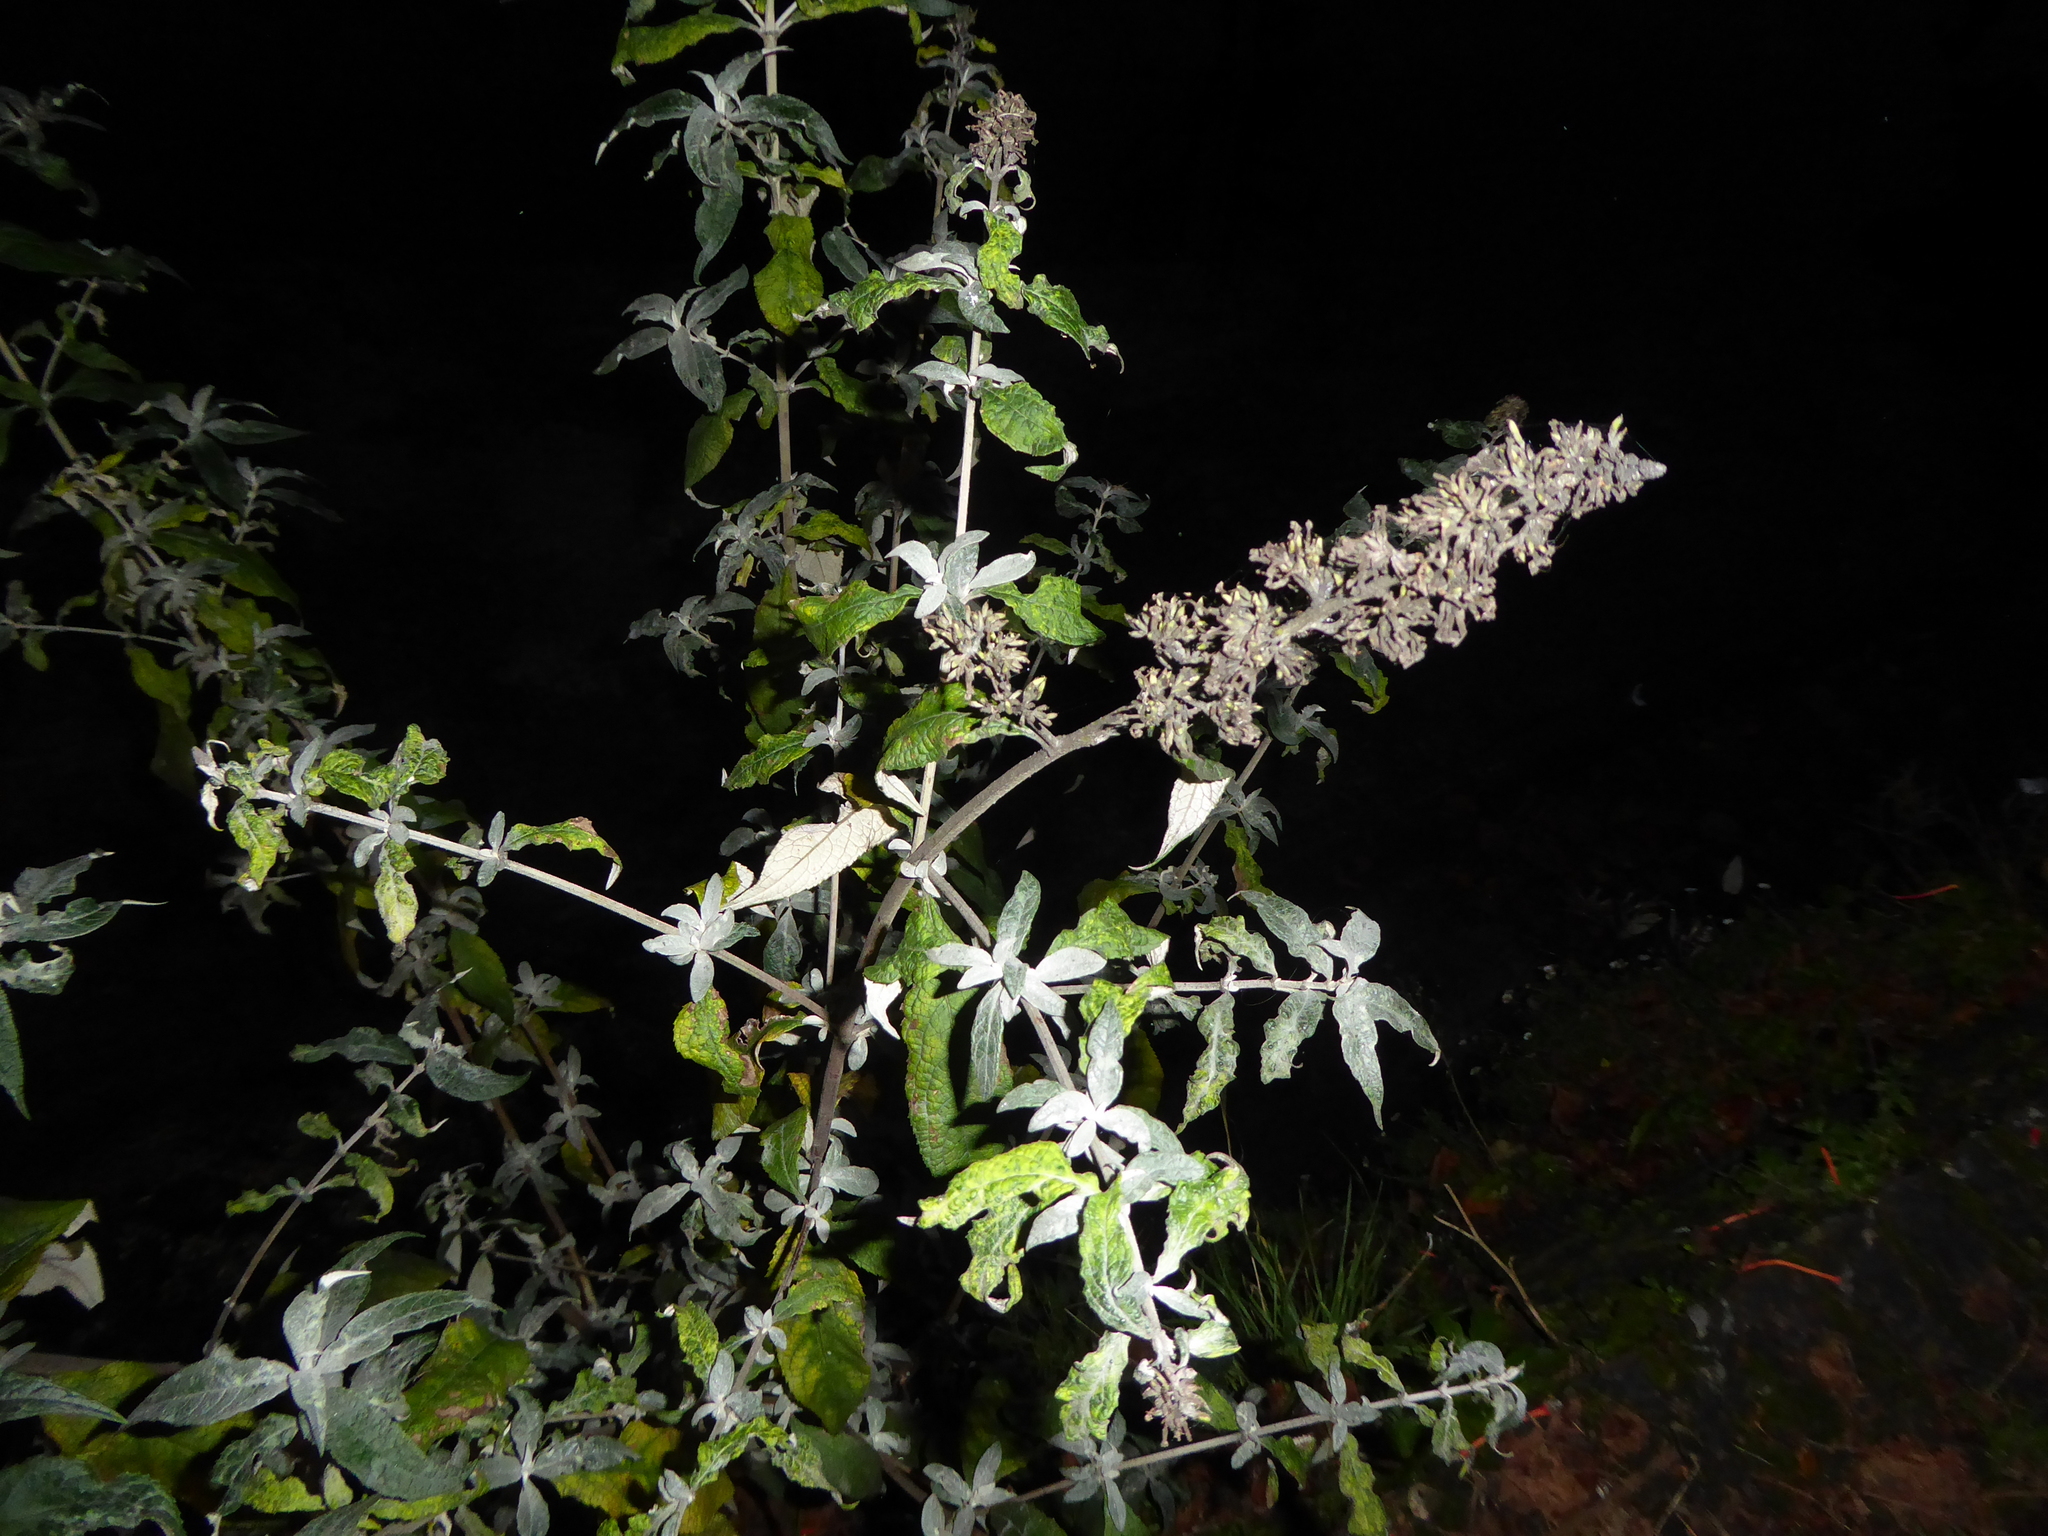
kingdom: Plantae
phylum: Tracheophyta
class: Magnoliopsida
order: Lamiales
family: Scrophulariaceae
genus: Buddleja
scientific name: Buddleja davidii
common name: Butterfly-bush
